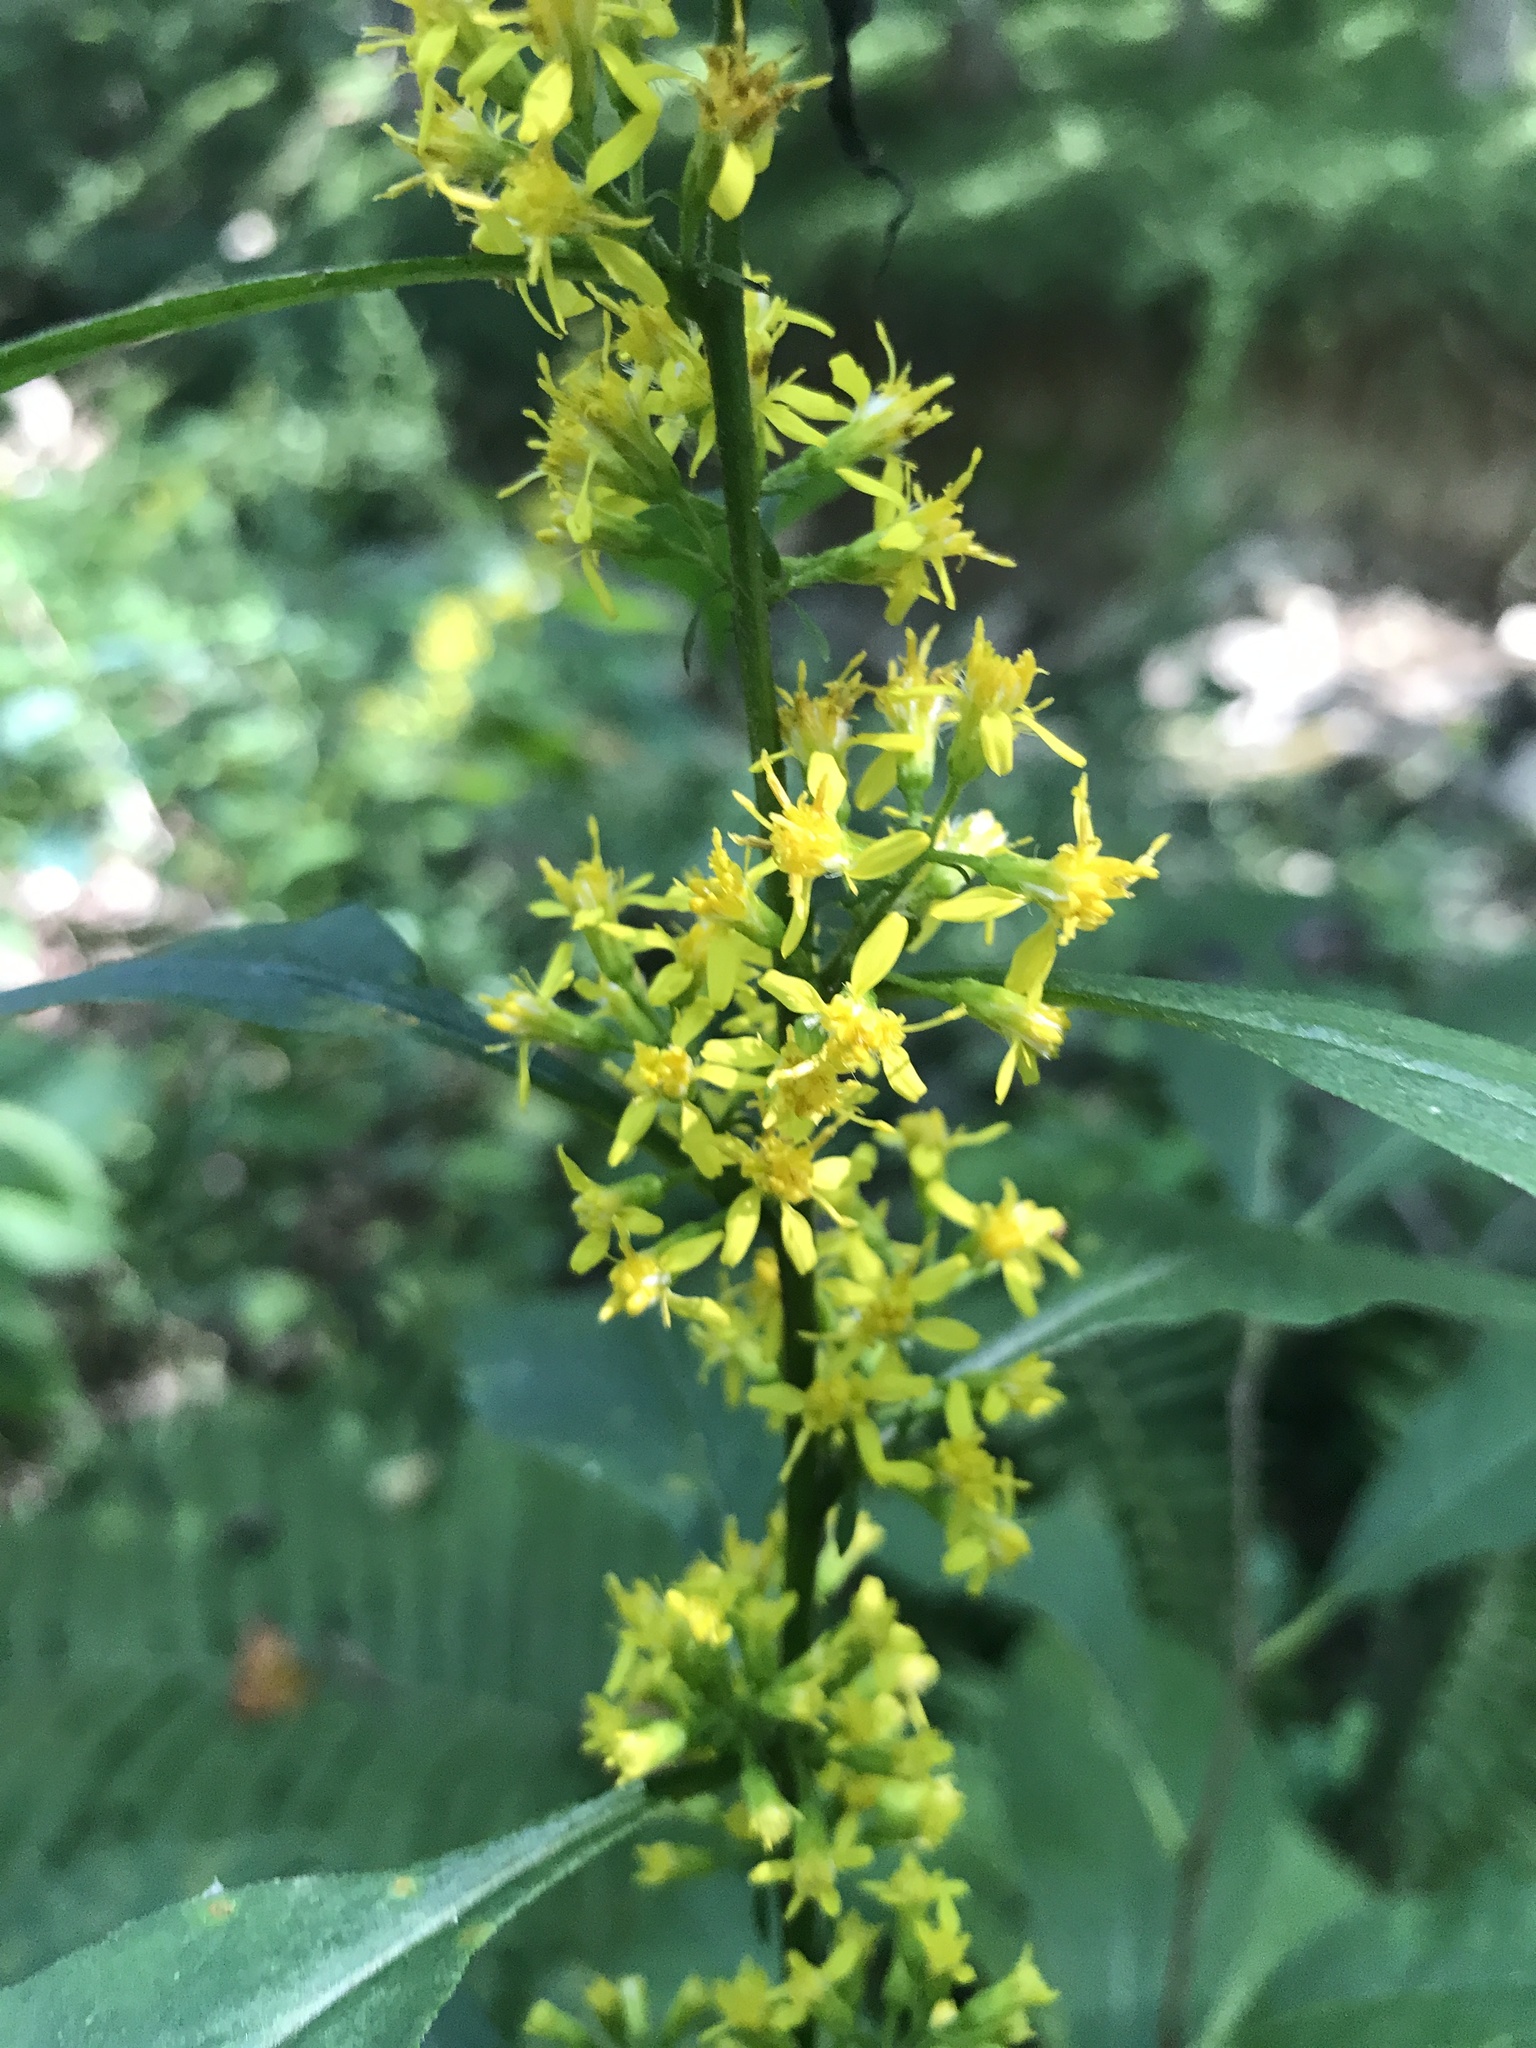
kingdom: Plantae
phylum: Tracheophyta
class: Magnoliopsida
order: Asterales
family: Asteraceae
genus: Solidago
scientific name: Solidago flexicaulis
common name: Zig-zag goldenrod
